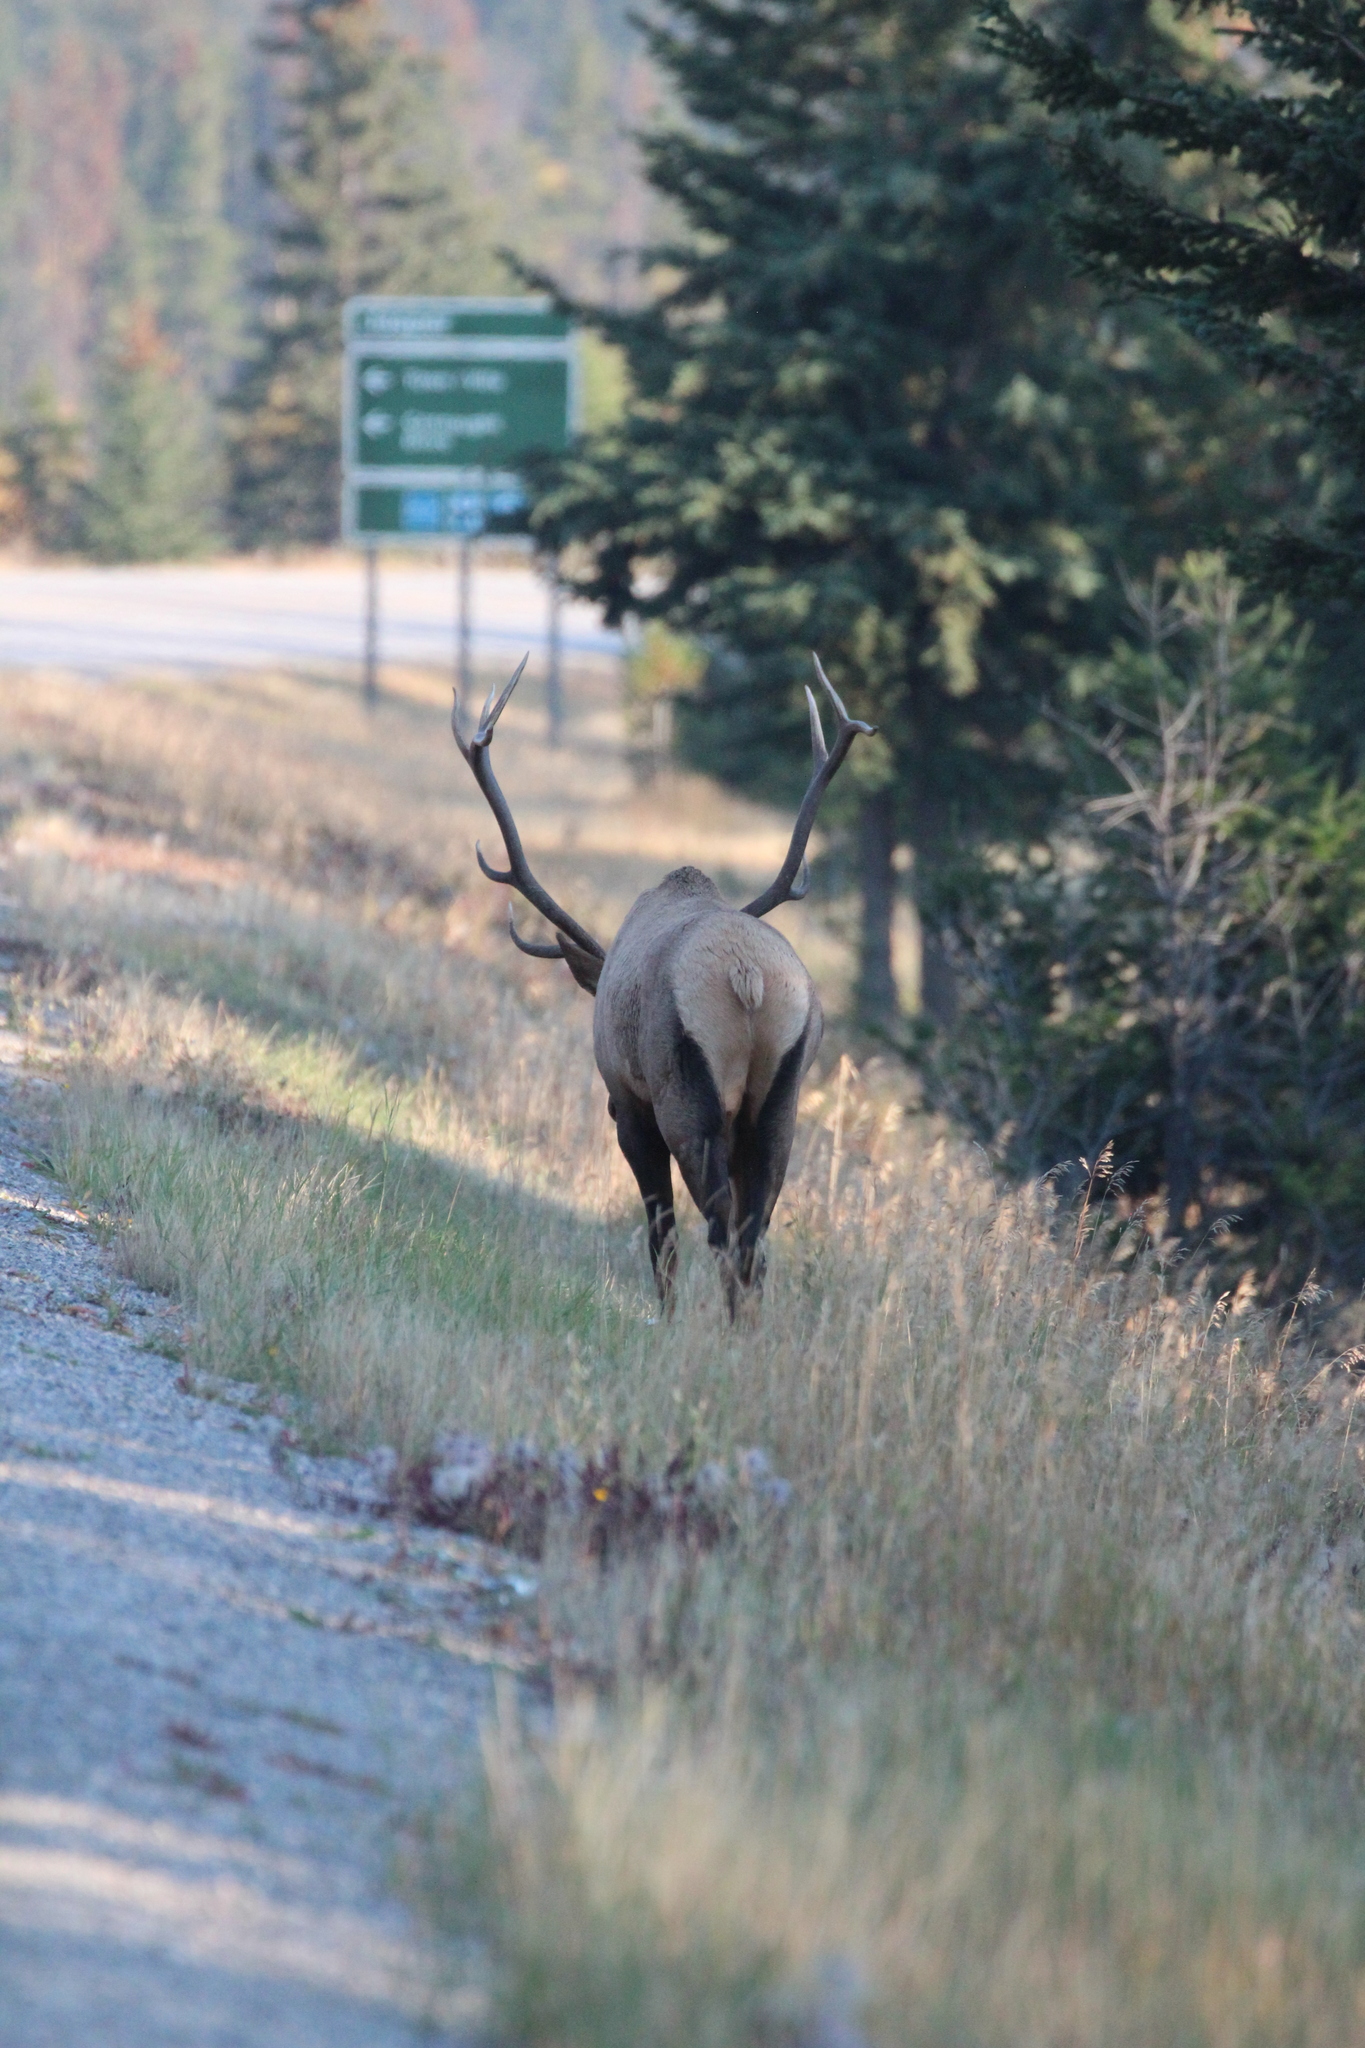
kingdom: Animalia
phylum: Chordata
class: Mammalia
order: Artiodactyla
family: Cervidae
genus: Cervus
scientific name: Cervus elaphus
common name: Red deer
